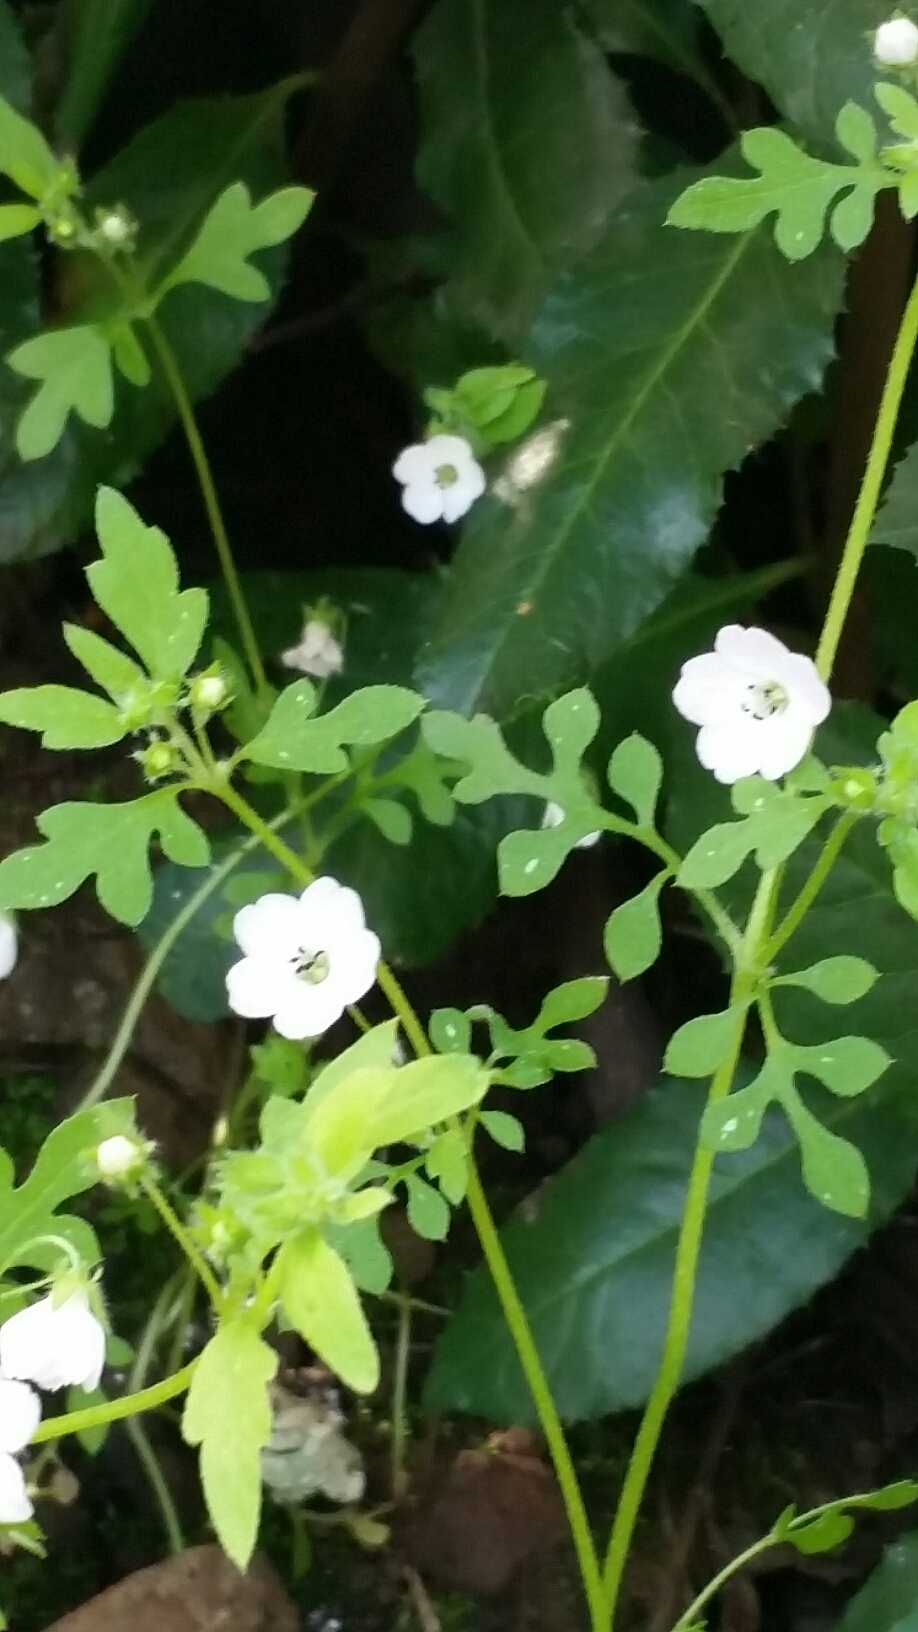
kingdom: Plantae
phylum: Tracheophyta
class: Magnoliopsida
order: Boraginales
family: Hydrophyllaceae
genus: Nemophila
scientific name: Nemophila heterophylla
